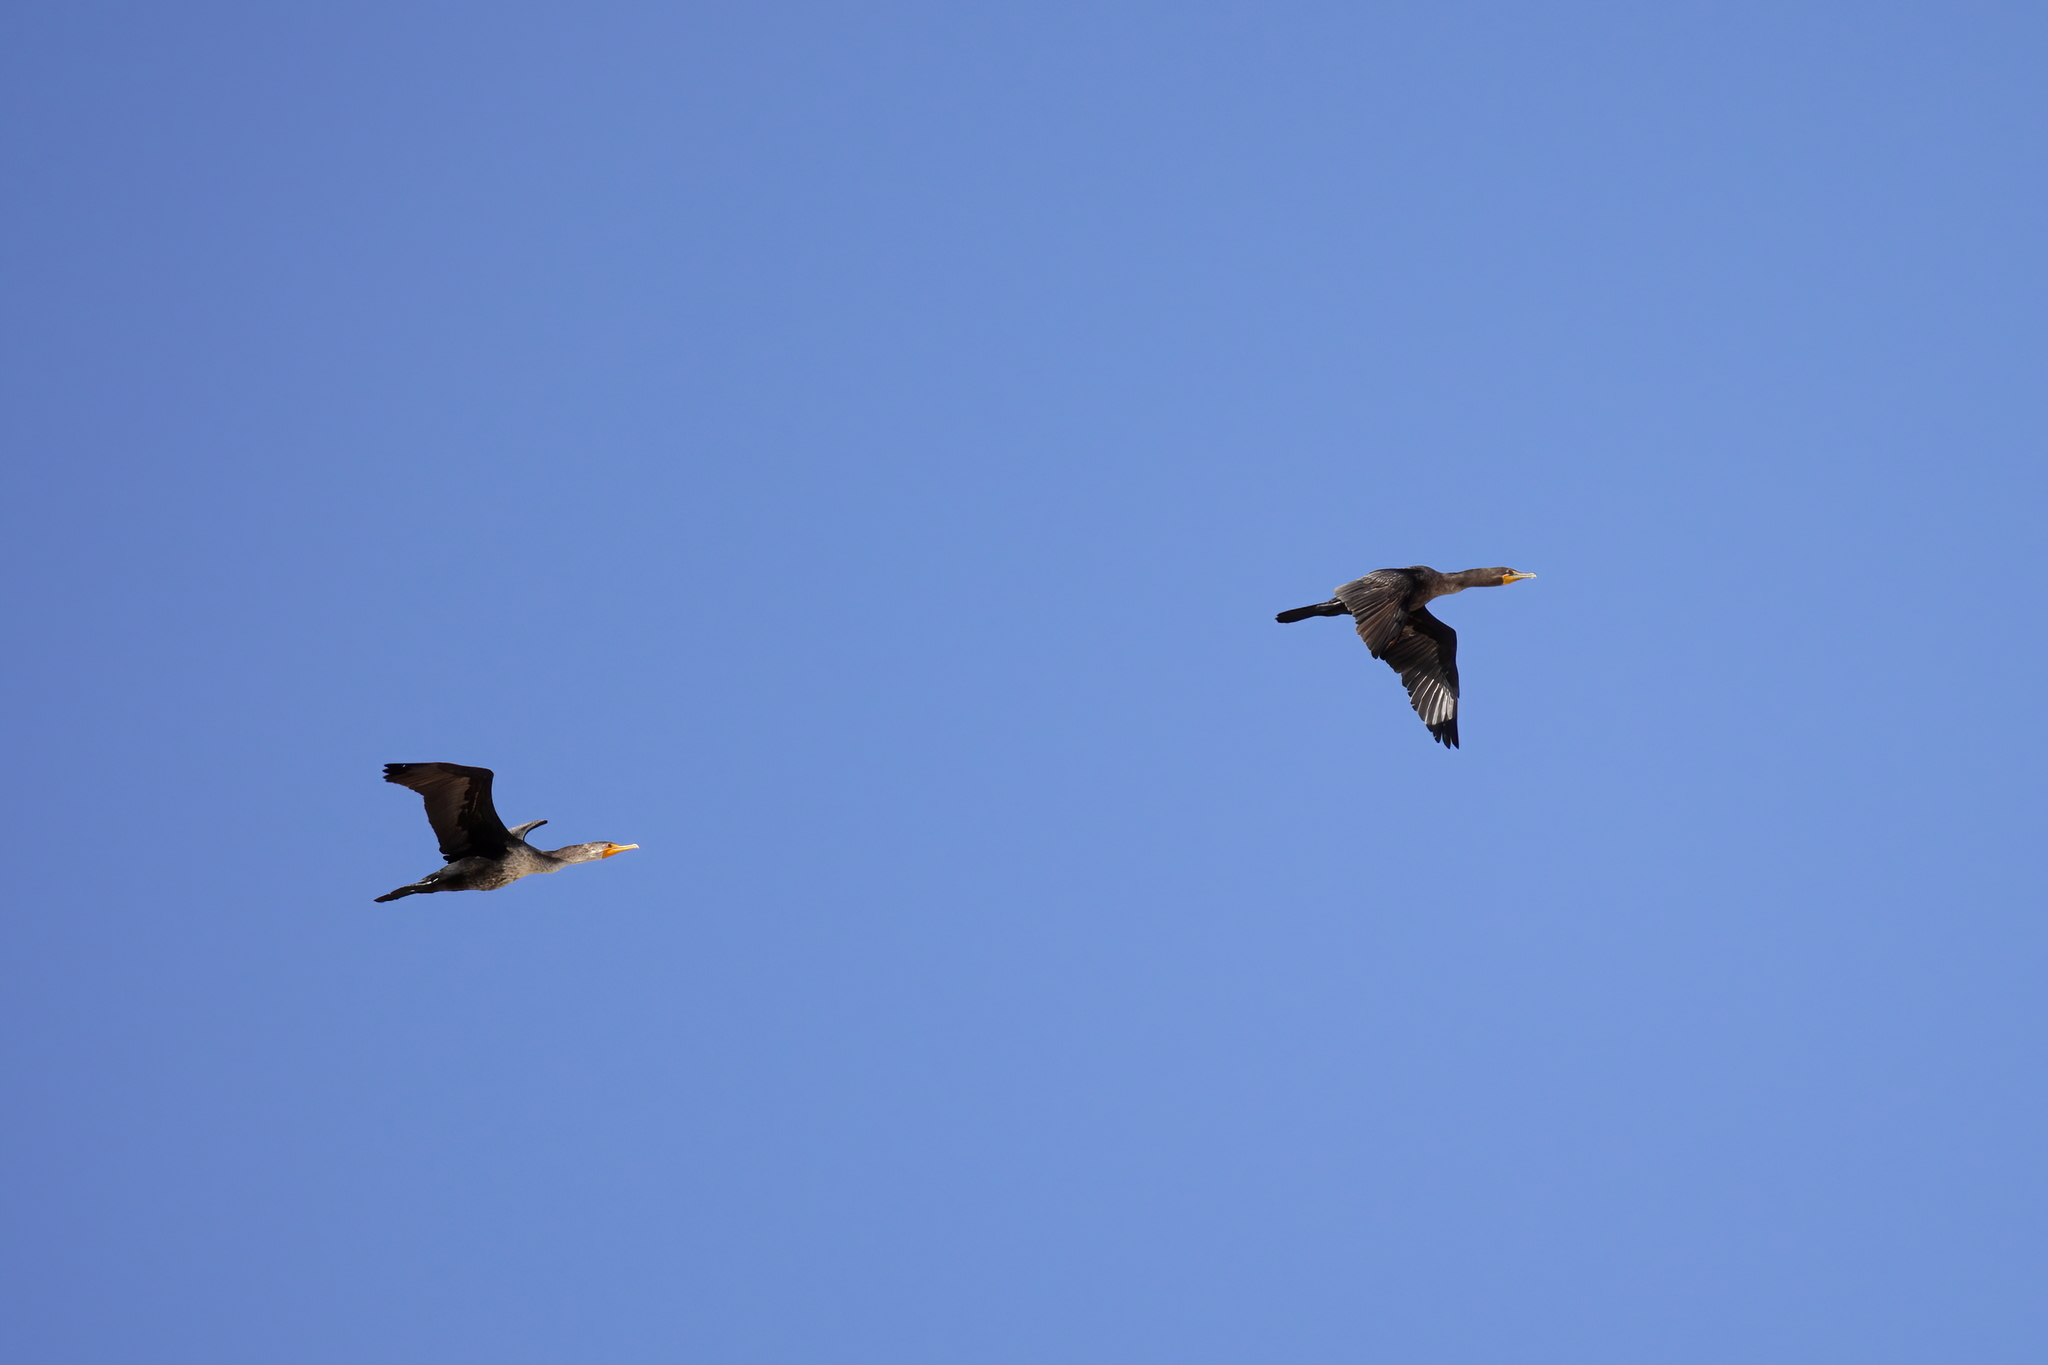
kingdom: Animalia
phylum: Chordata
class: Aves
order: Suliformes
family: Phalacrocoracidae
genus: Phalacrocorax
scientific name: Phalacrocorax auritus
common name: Double-crested cormorant
